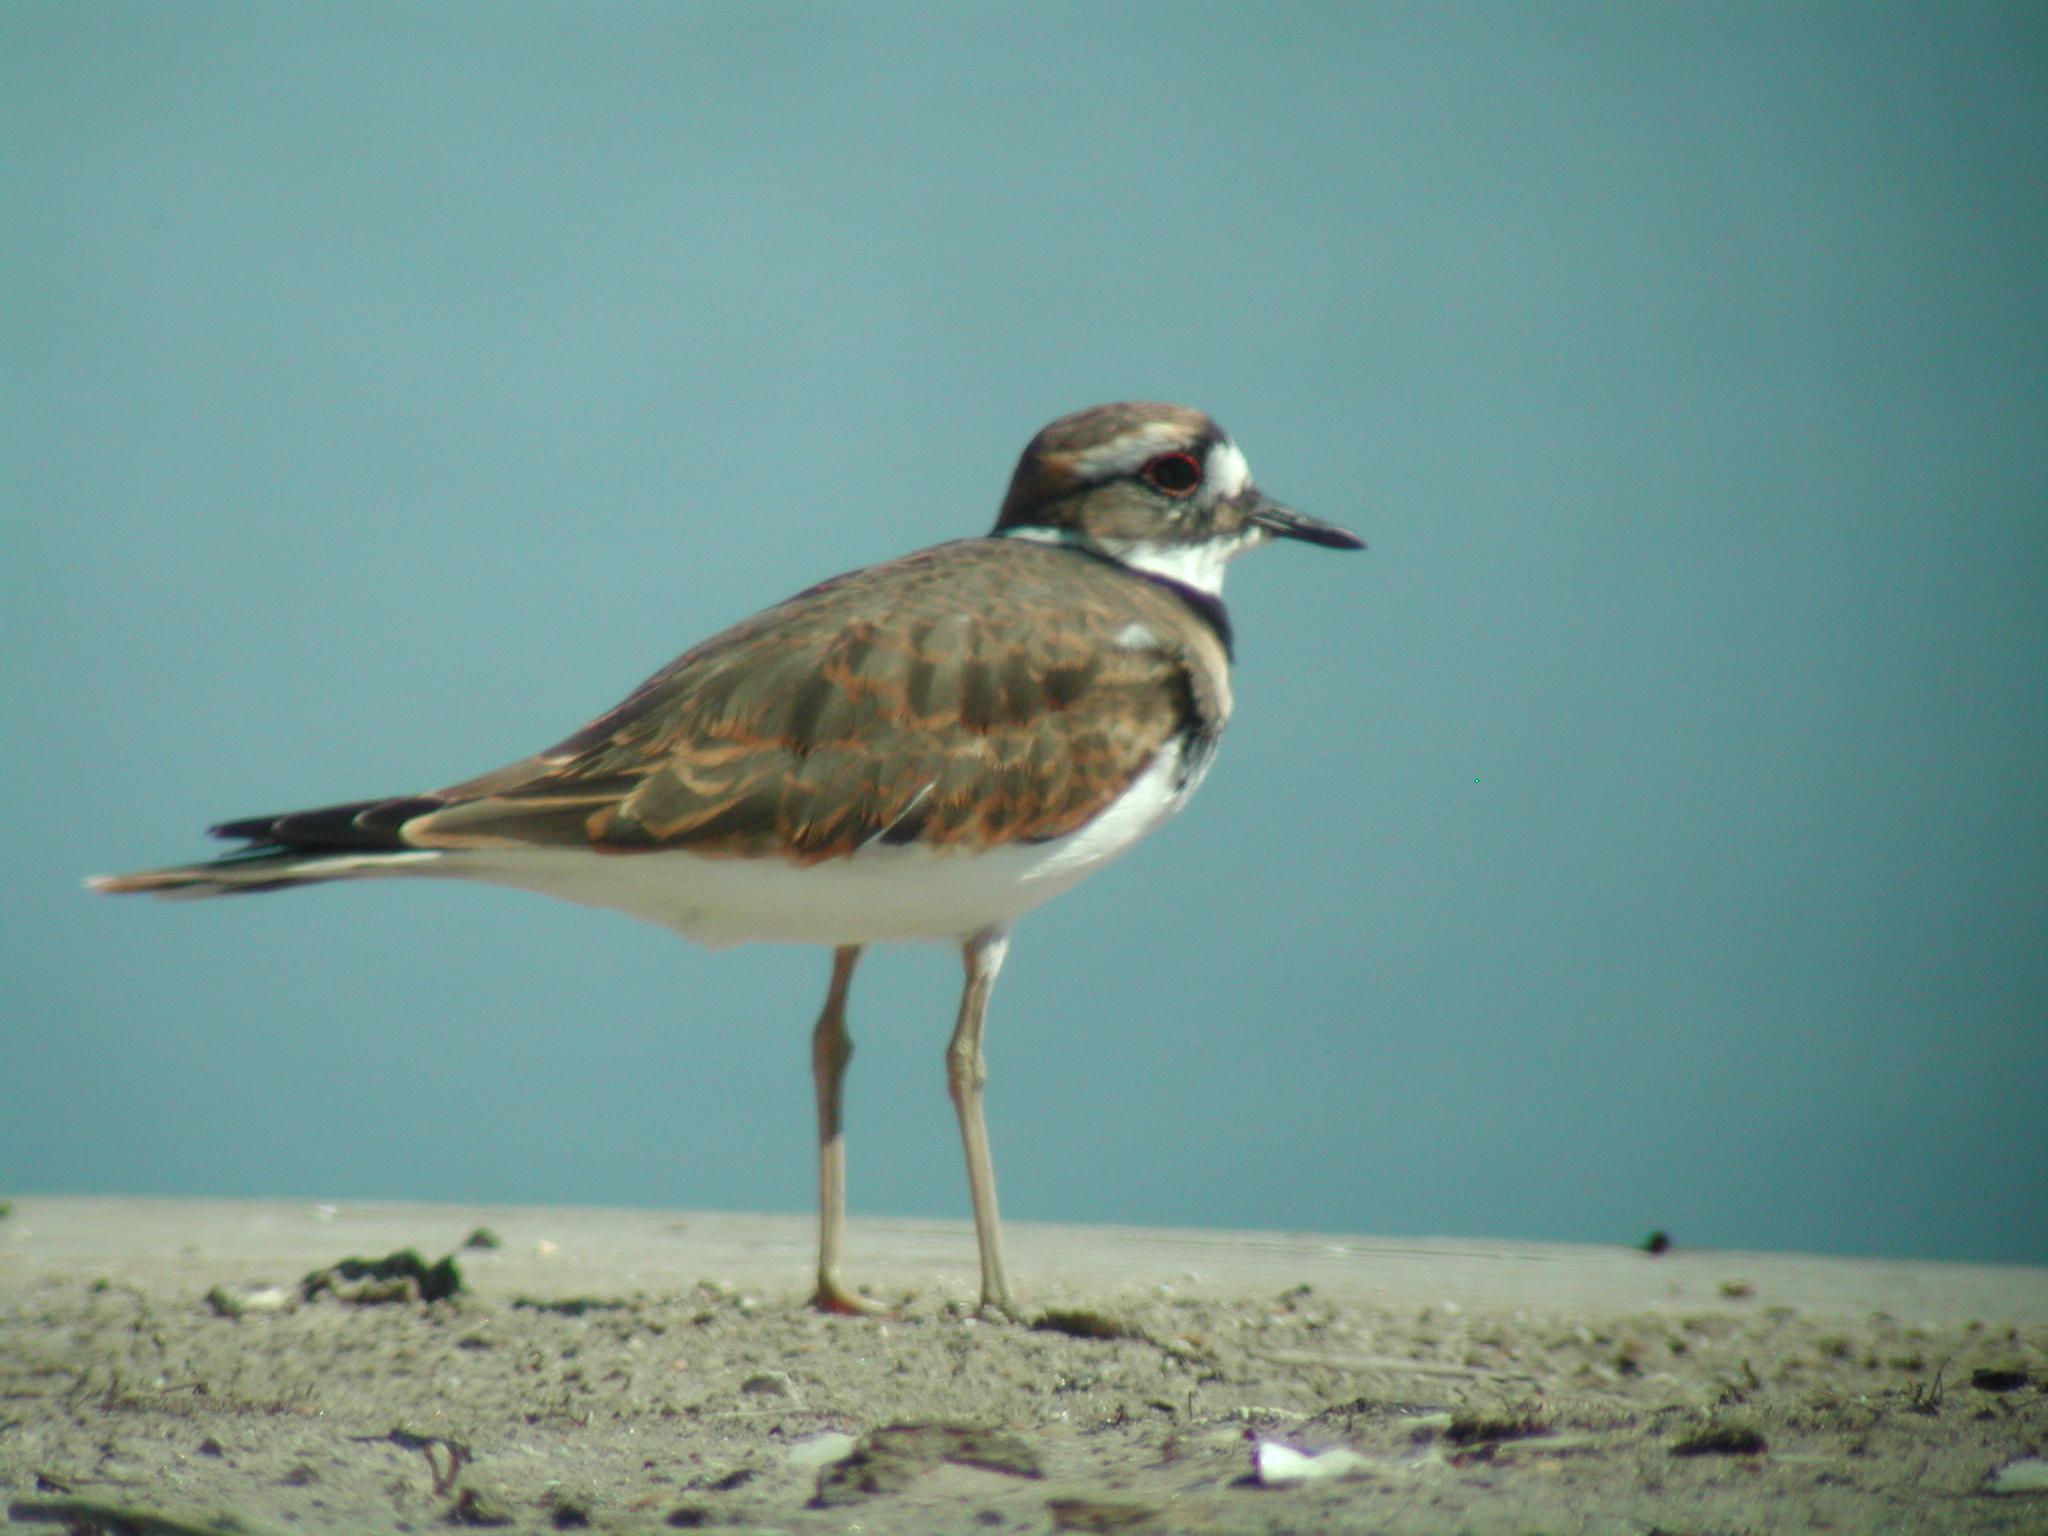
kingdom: Animalia
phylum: Chordata
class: Aves
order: Charadriiformes
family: Charadriidae
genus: Charadrius
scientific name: Charadrius vociferus
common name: Killdeer
